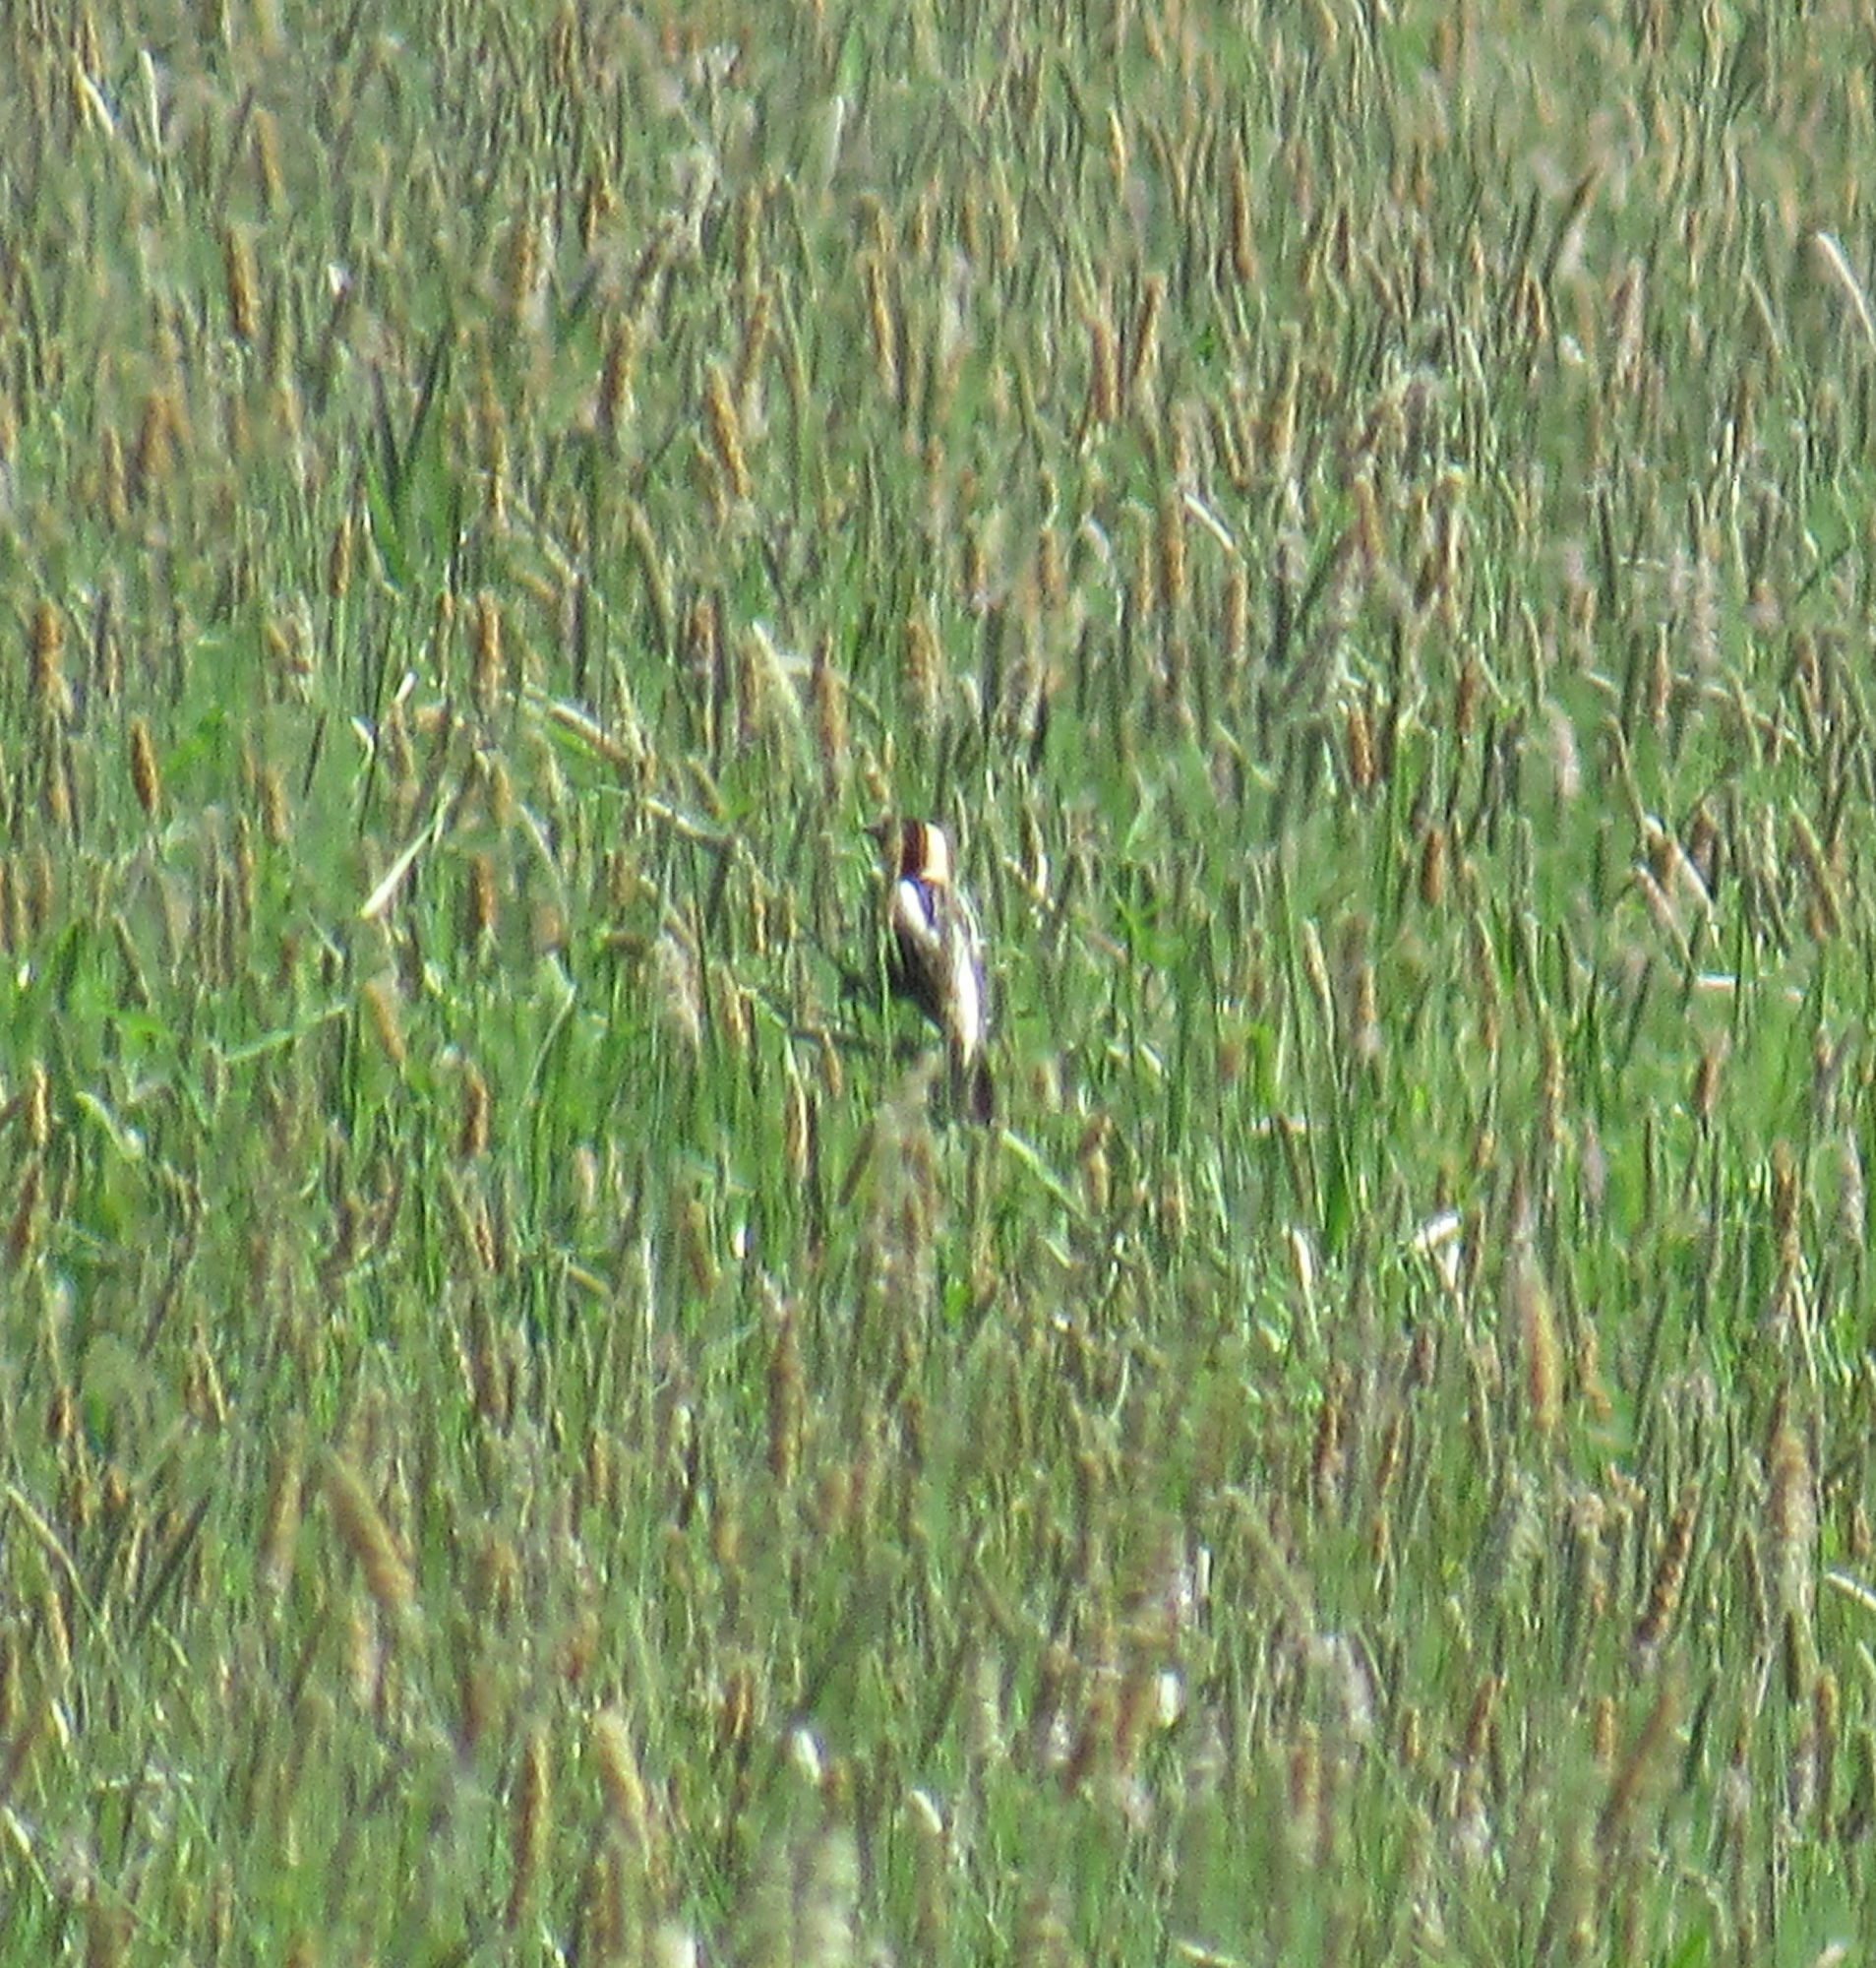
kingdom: Animalia
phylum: Chordata
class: Aves
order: Passeriformes
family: Icteridae
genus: Dolichonyx
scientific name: Dolichonyx oryzivorus
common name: Bobolink
